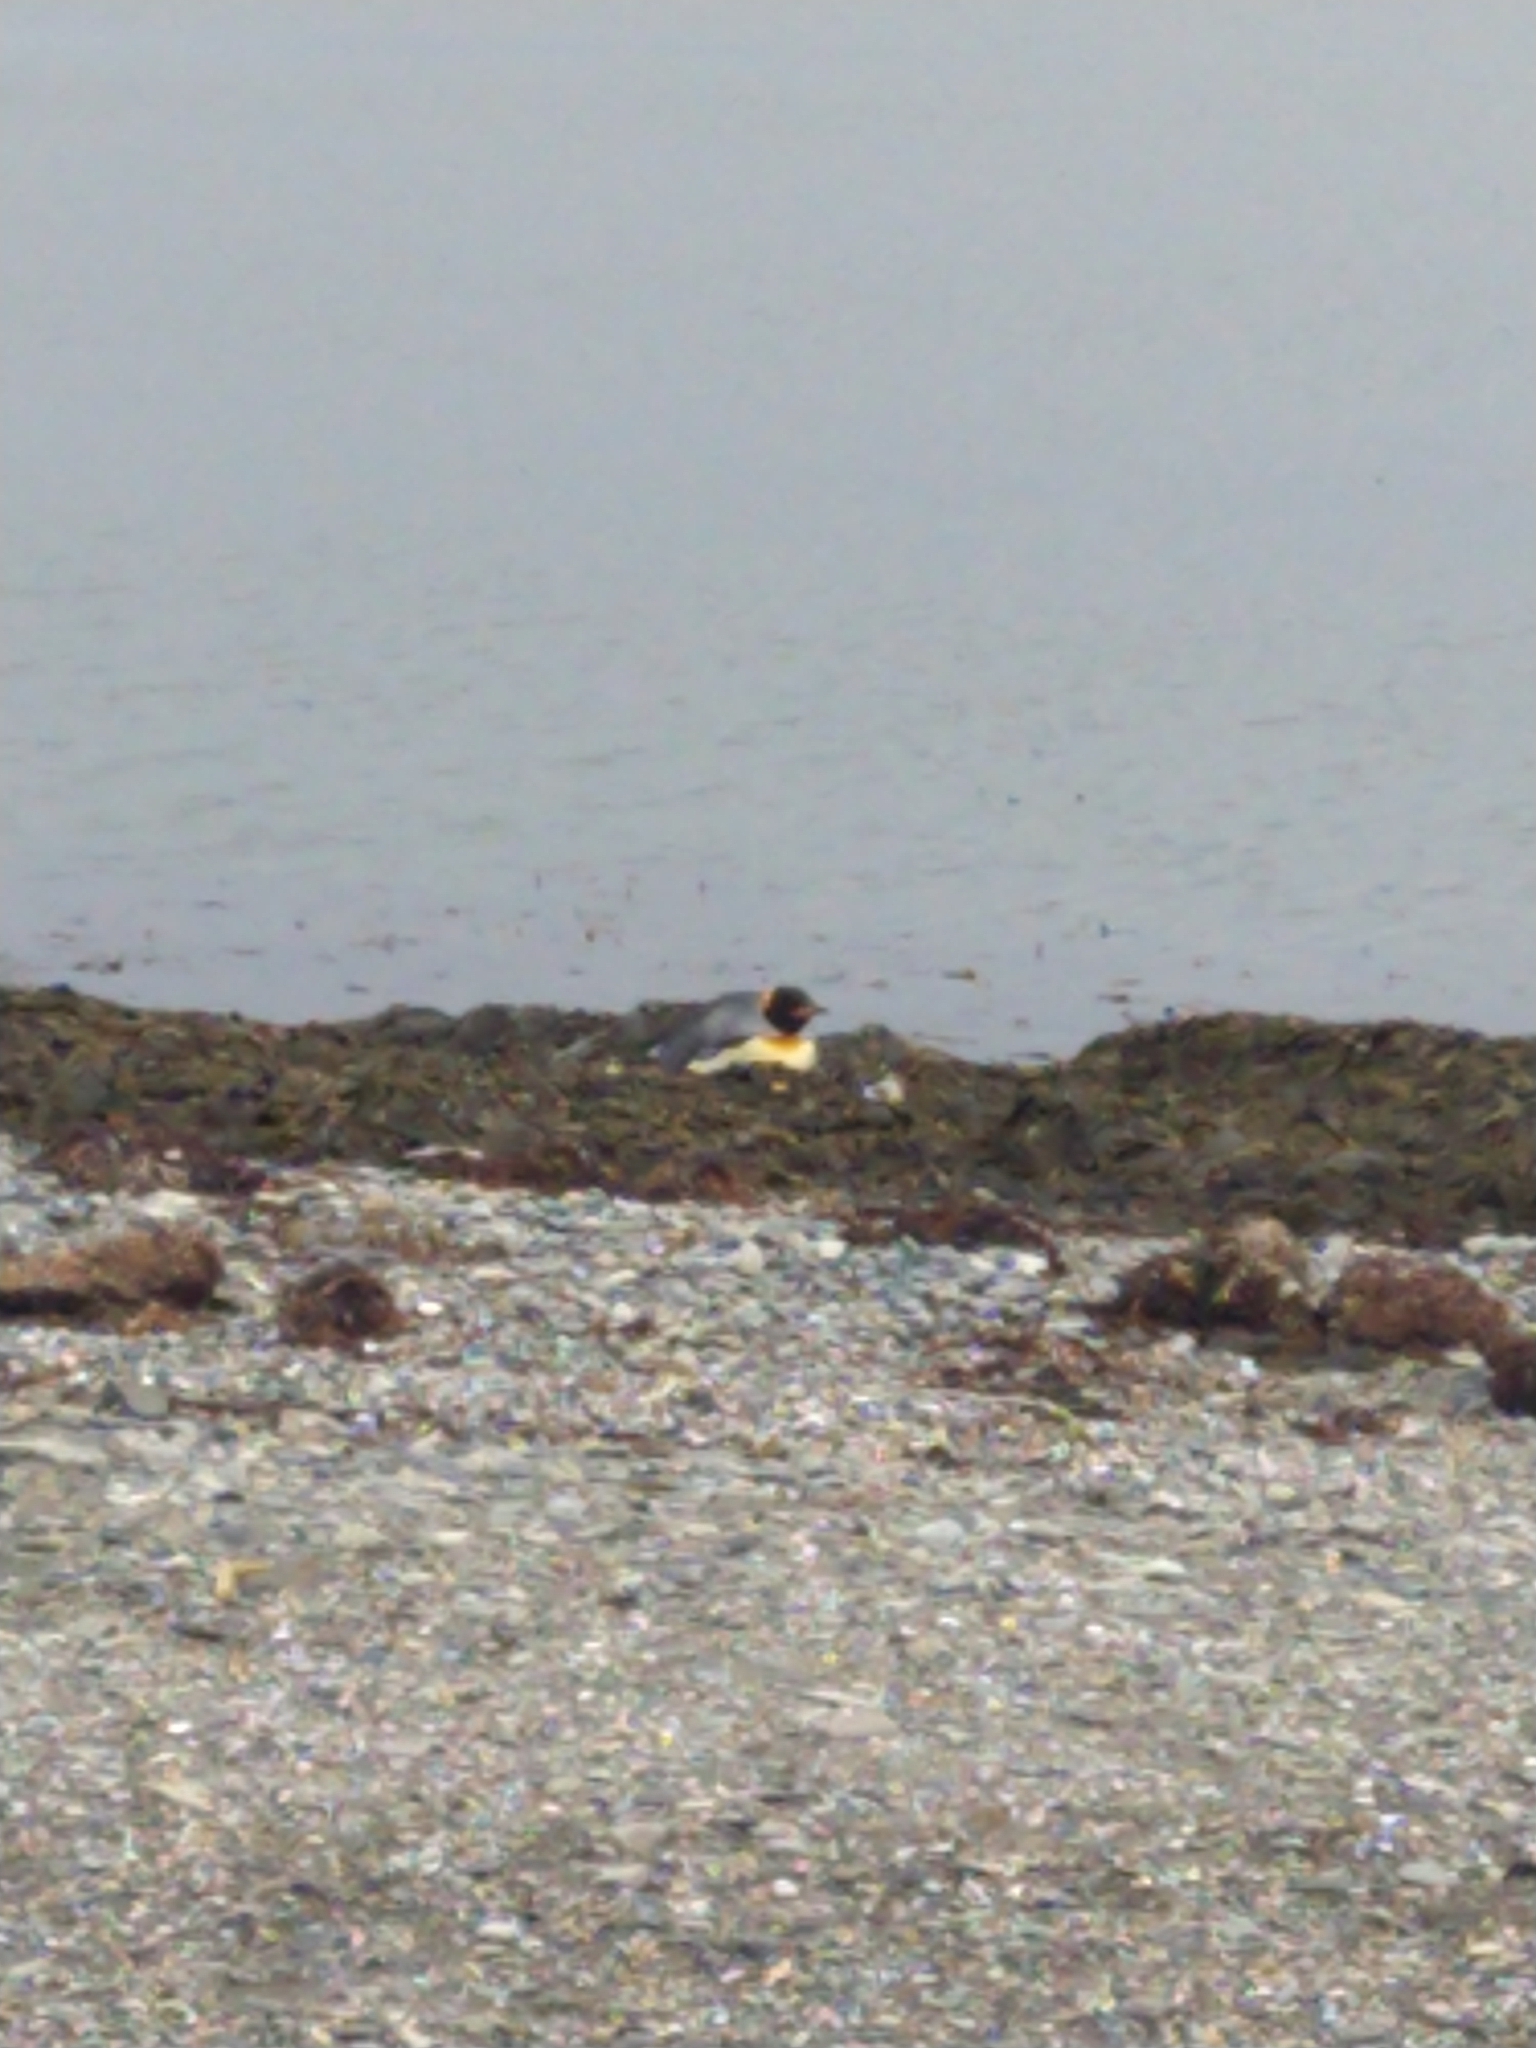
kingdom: Animalia
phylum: Chordata
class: Aves
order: Sphenisciformes
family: Spheniscidae
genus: Aptenodytes
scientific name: Aptenodytes patagonicus
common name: King penguin
